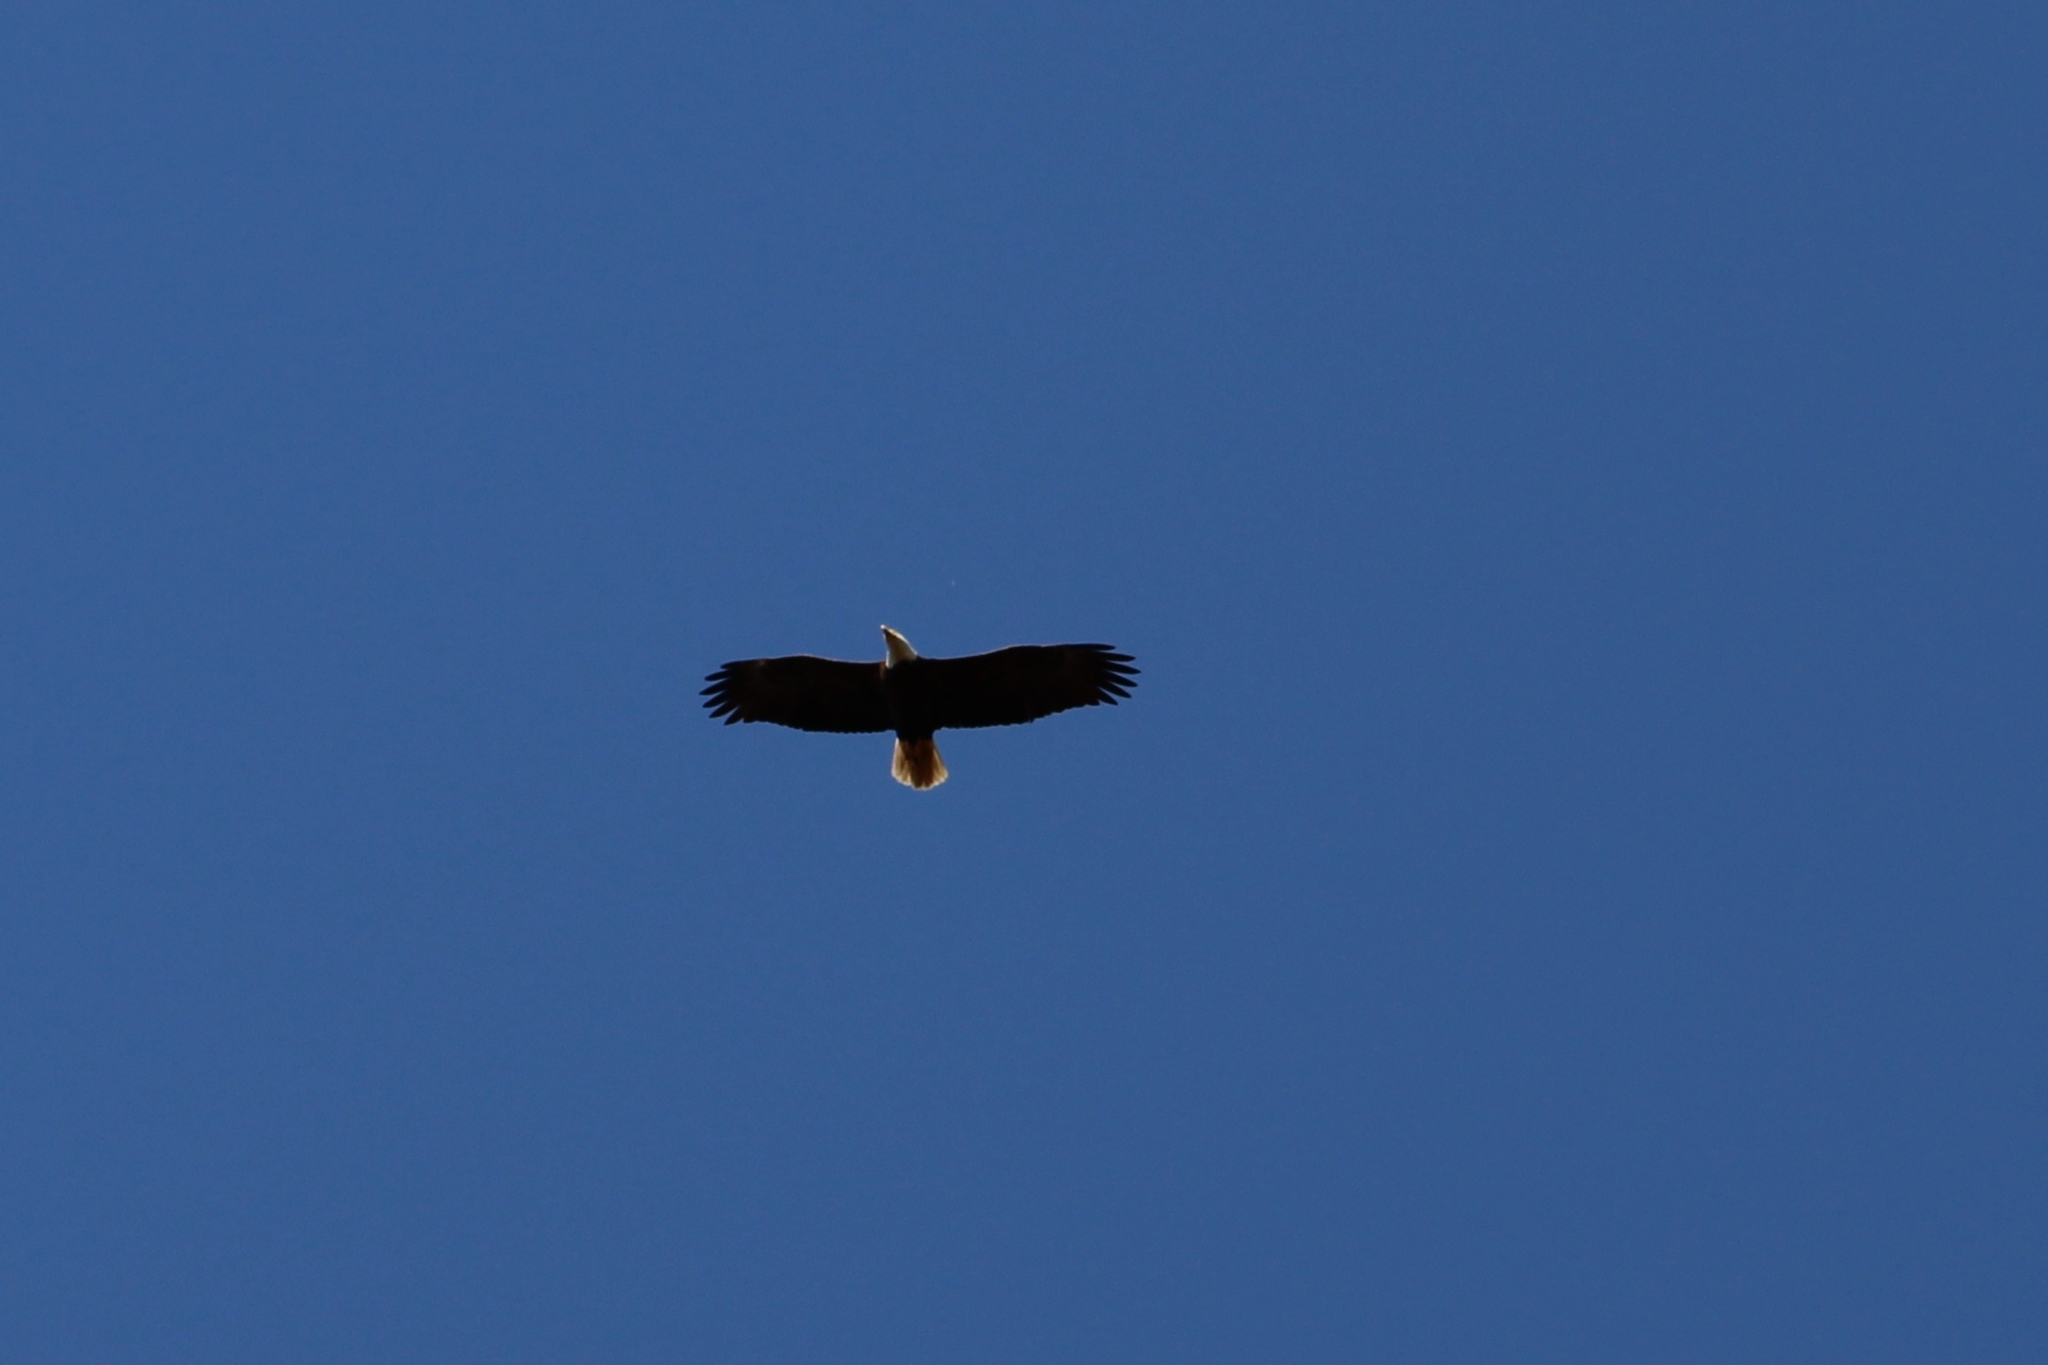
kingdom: Animalia
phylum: Chordata
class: Aves
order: Accipitriformes
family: Accipitridae
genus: Haliaeetus
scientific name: Haliaeetus leucocephalus
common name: Bald eagle
